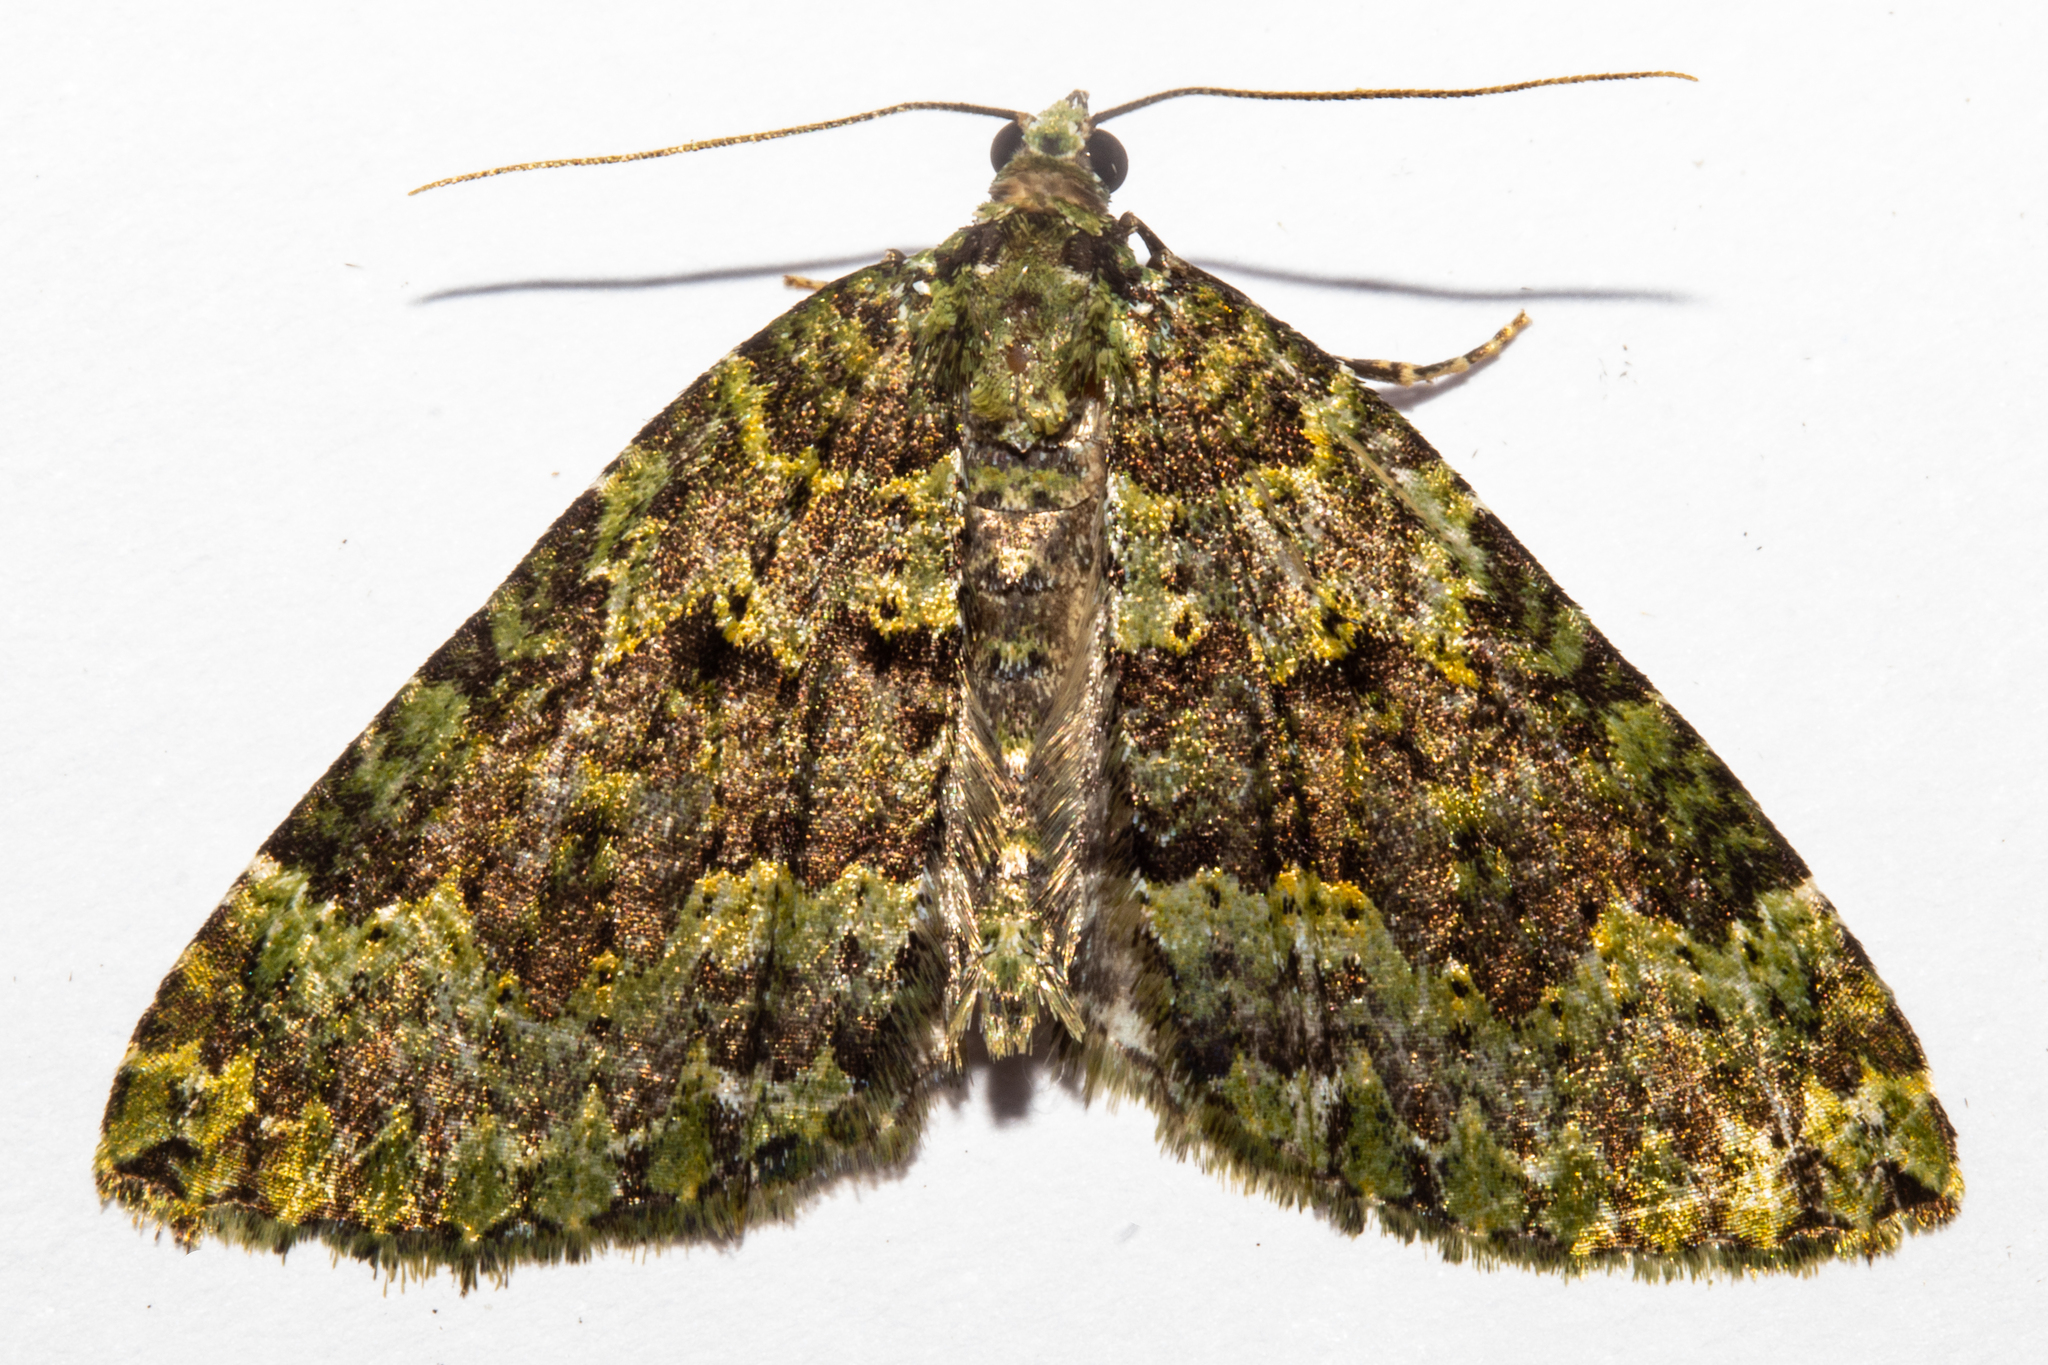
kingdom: Animalia
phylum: Arthropoda
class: Insecta
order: Lepidoptera
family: Geometridae
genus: Austrocidaria
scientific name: Austrocidaria callichlora
